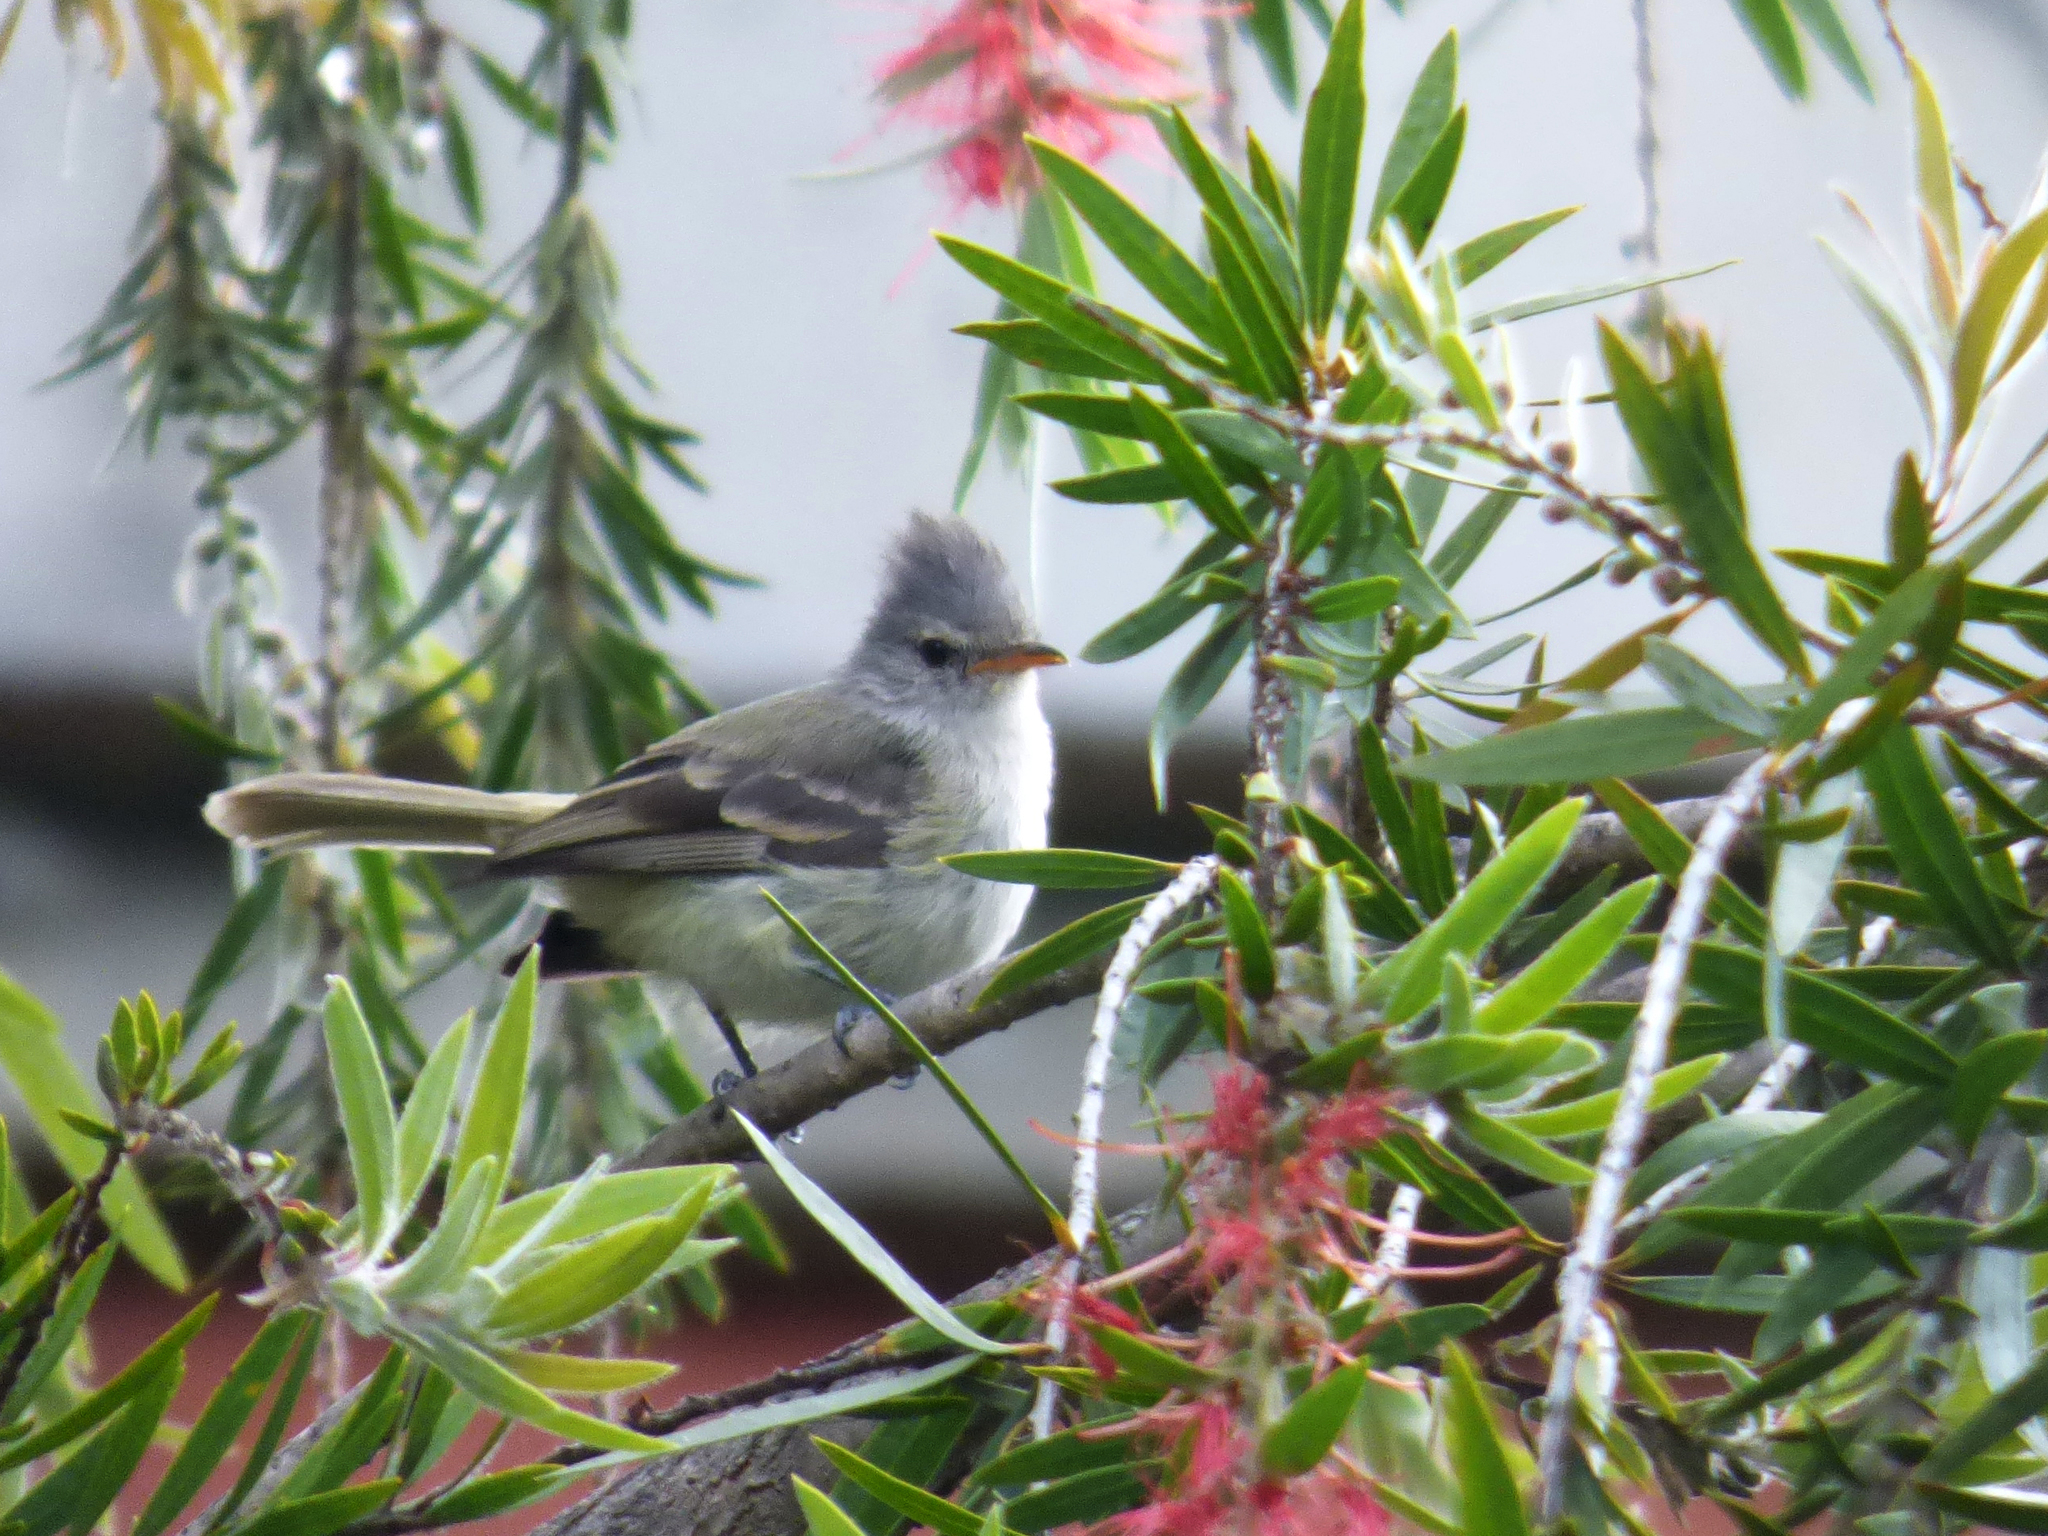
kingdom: Animalia
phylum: Chordata
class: Aves
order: Passeriformes
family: Tyrannidae
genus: Camptostoma
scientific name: Camptostoma obsoletum
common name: Southern beardless-tyrannulet
